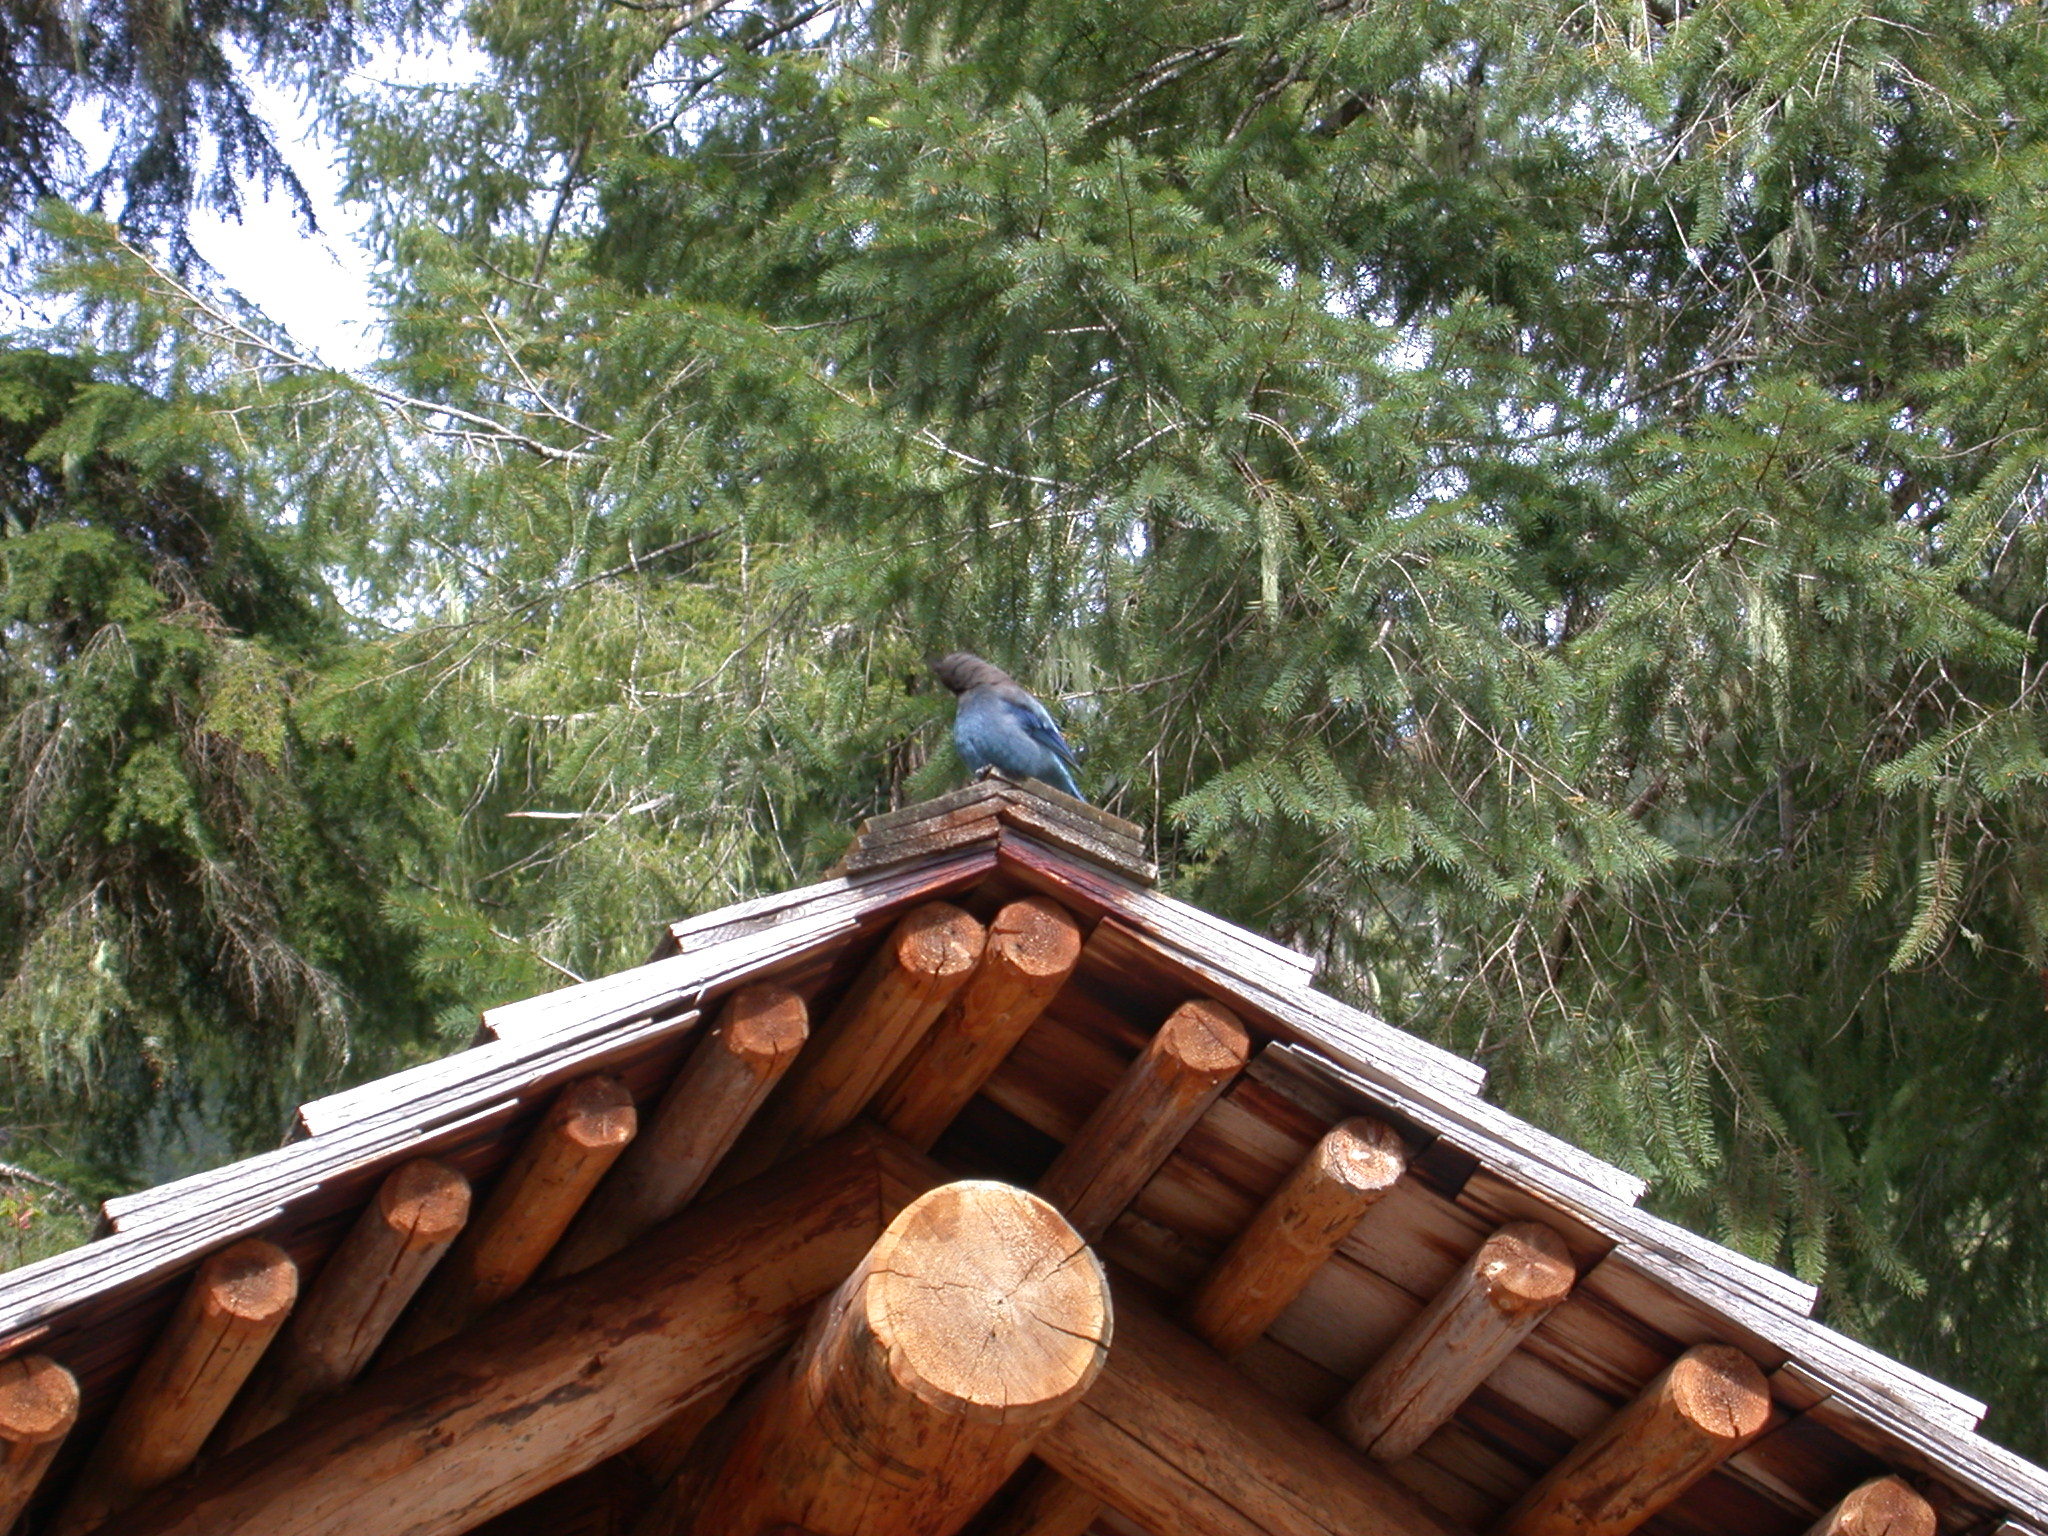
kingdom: Animalia
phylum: Chordata
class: Aves
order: Passeriformes
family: Corvidae
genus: Cyanocitta
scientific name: Cyanocitta stelleri
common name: Steller's jay
